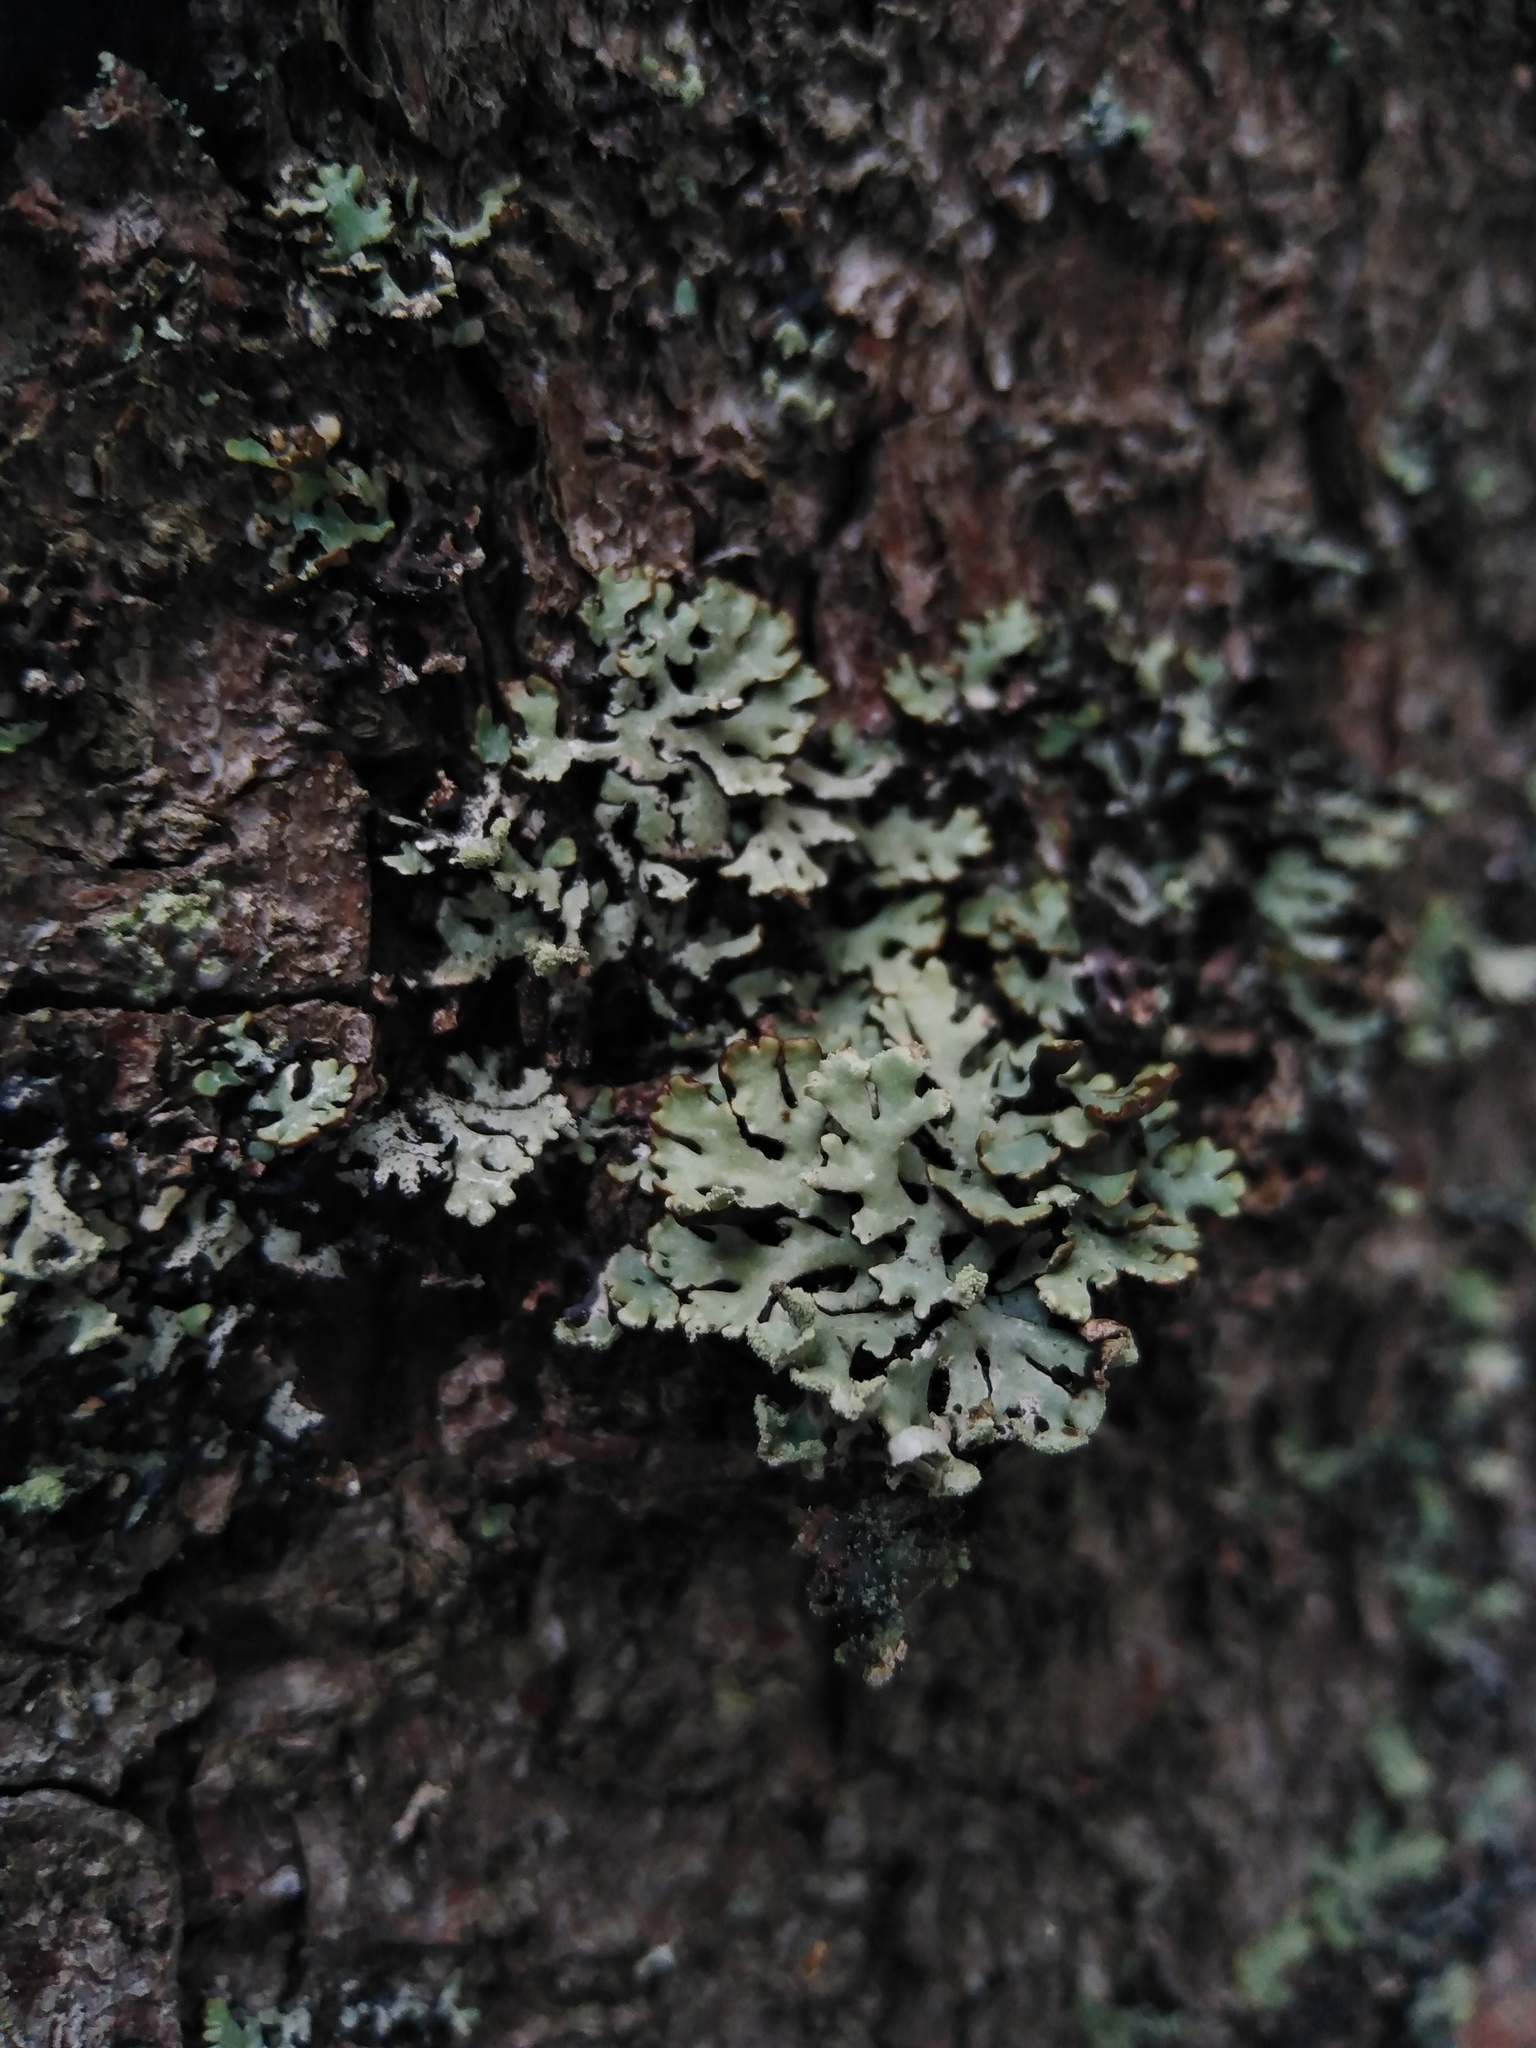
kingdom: Fungi
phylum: Ascomycota
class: Lecanoromycetes
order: Lecanorales
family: Parmeliaceae
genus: Hypogymnia
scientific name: Hypogymnia physodes
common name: Dark crottle
